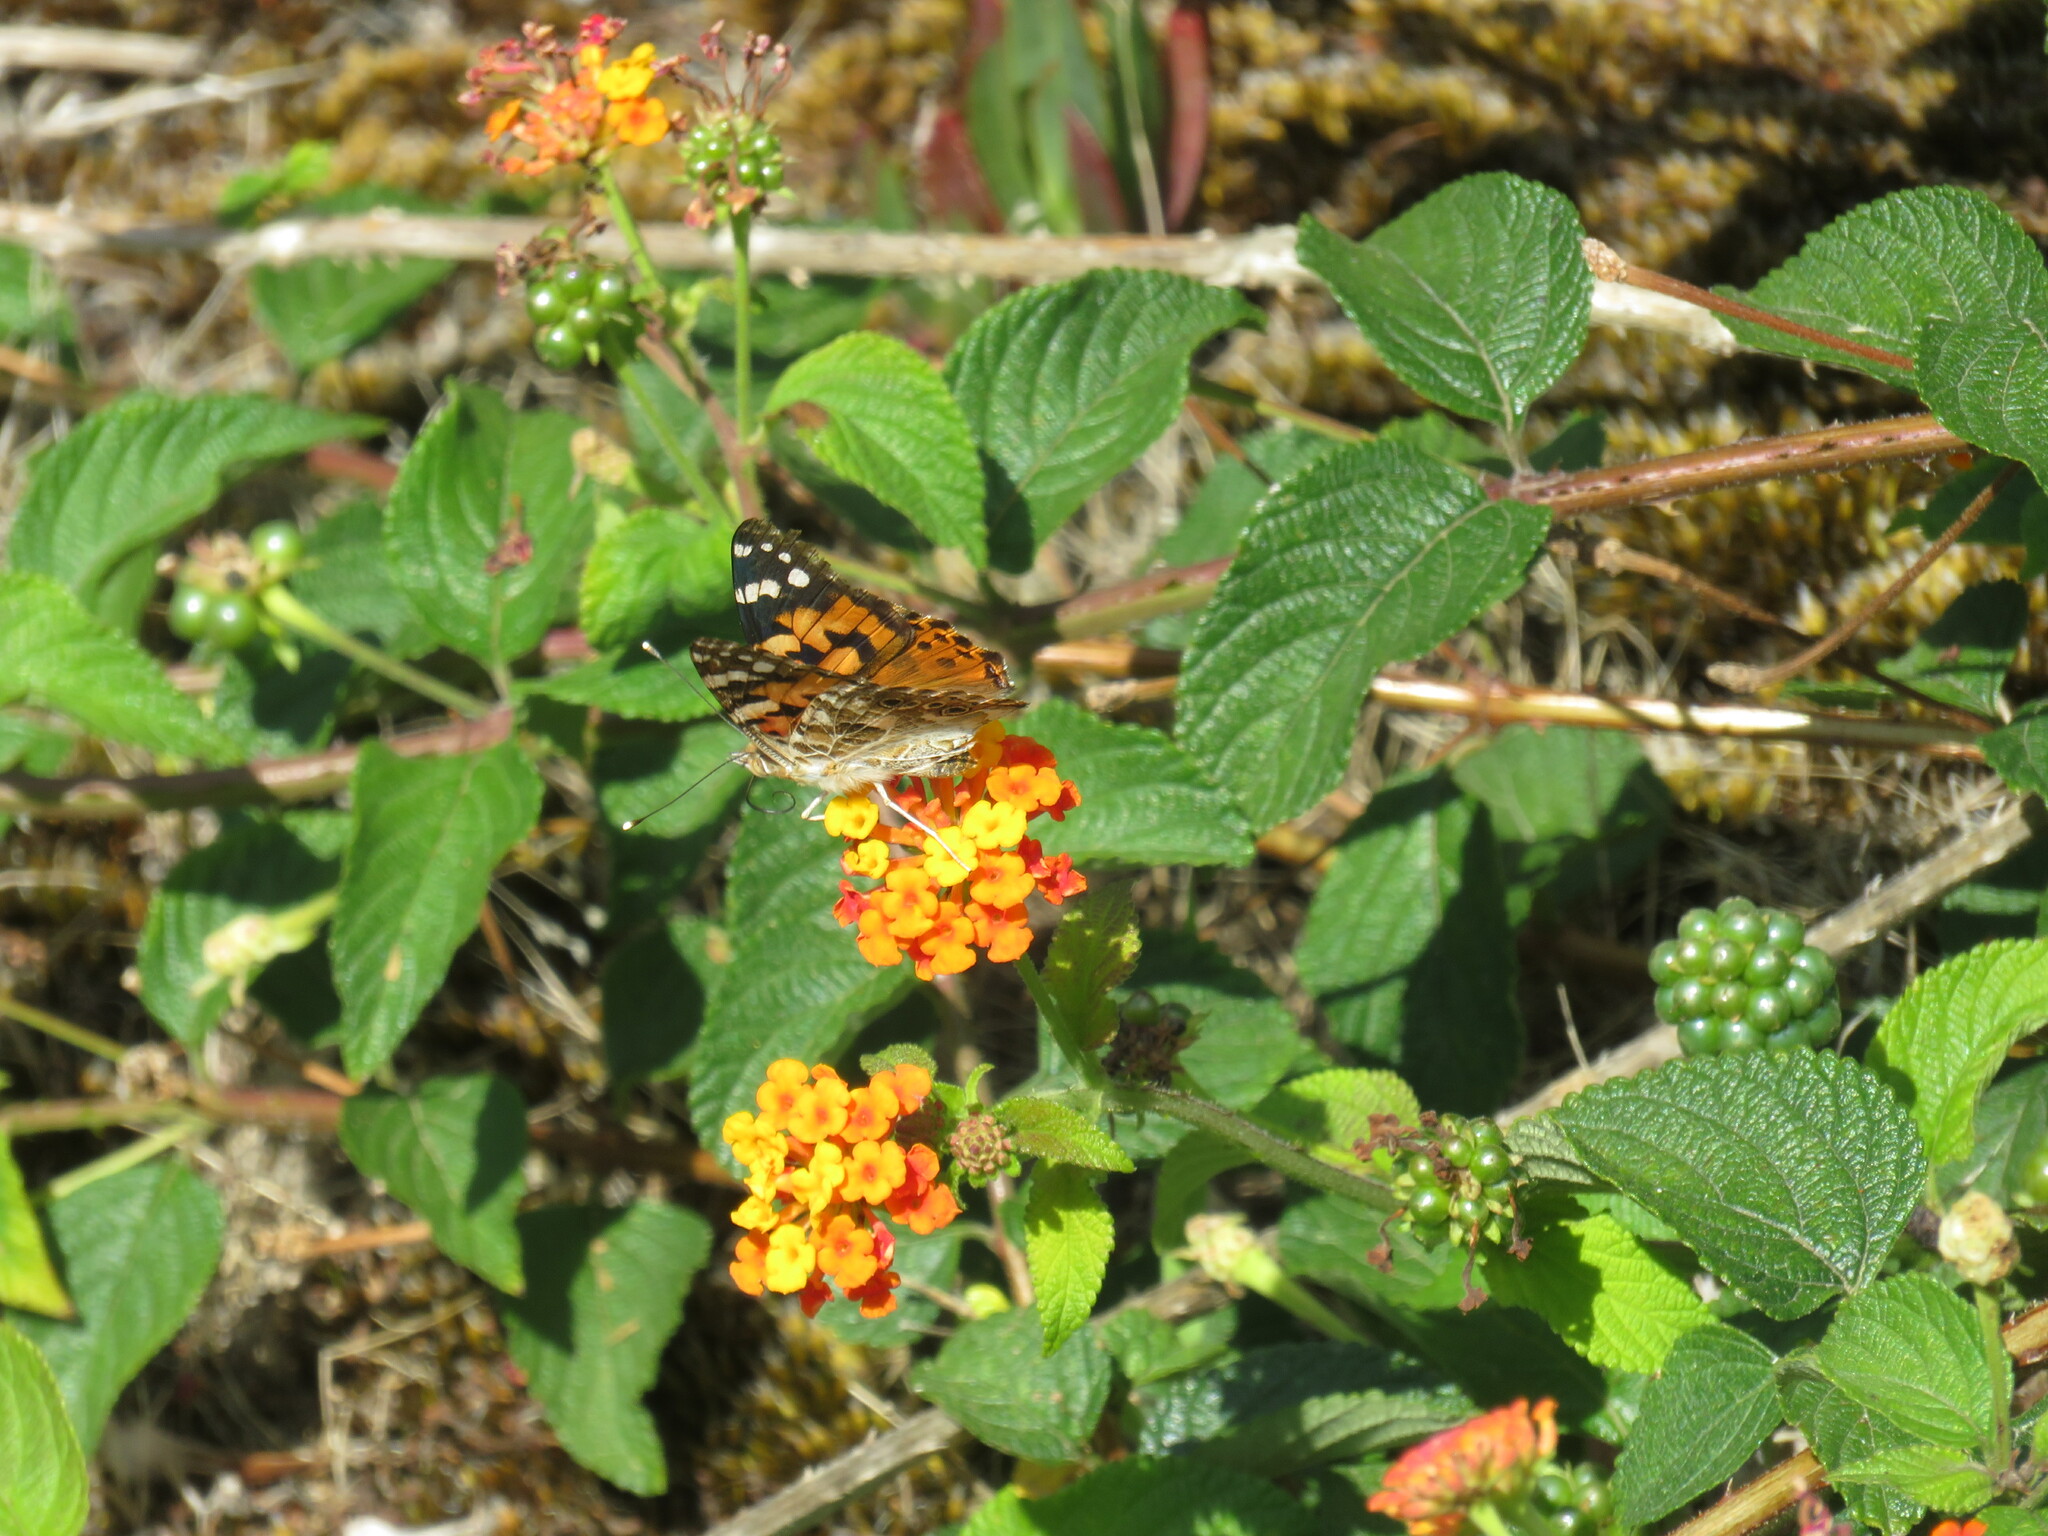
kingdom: Plantae
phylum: Tracheophyta
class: Magnoliopsida
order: Lamiales
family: Verbenaceae
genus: Lantana
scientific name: Lantana camara
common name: Lantana
